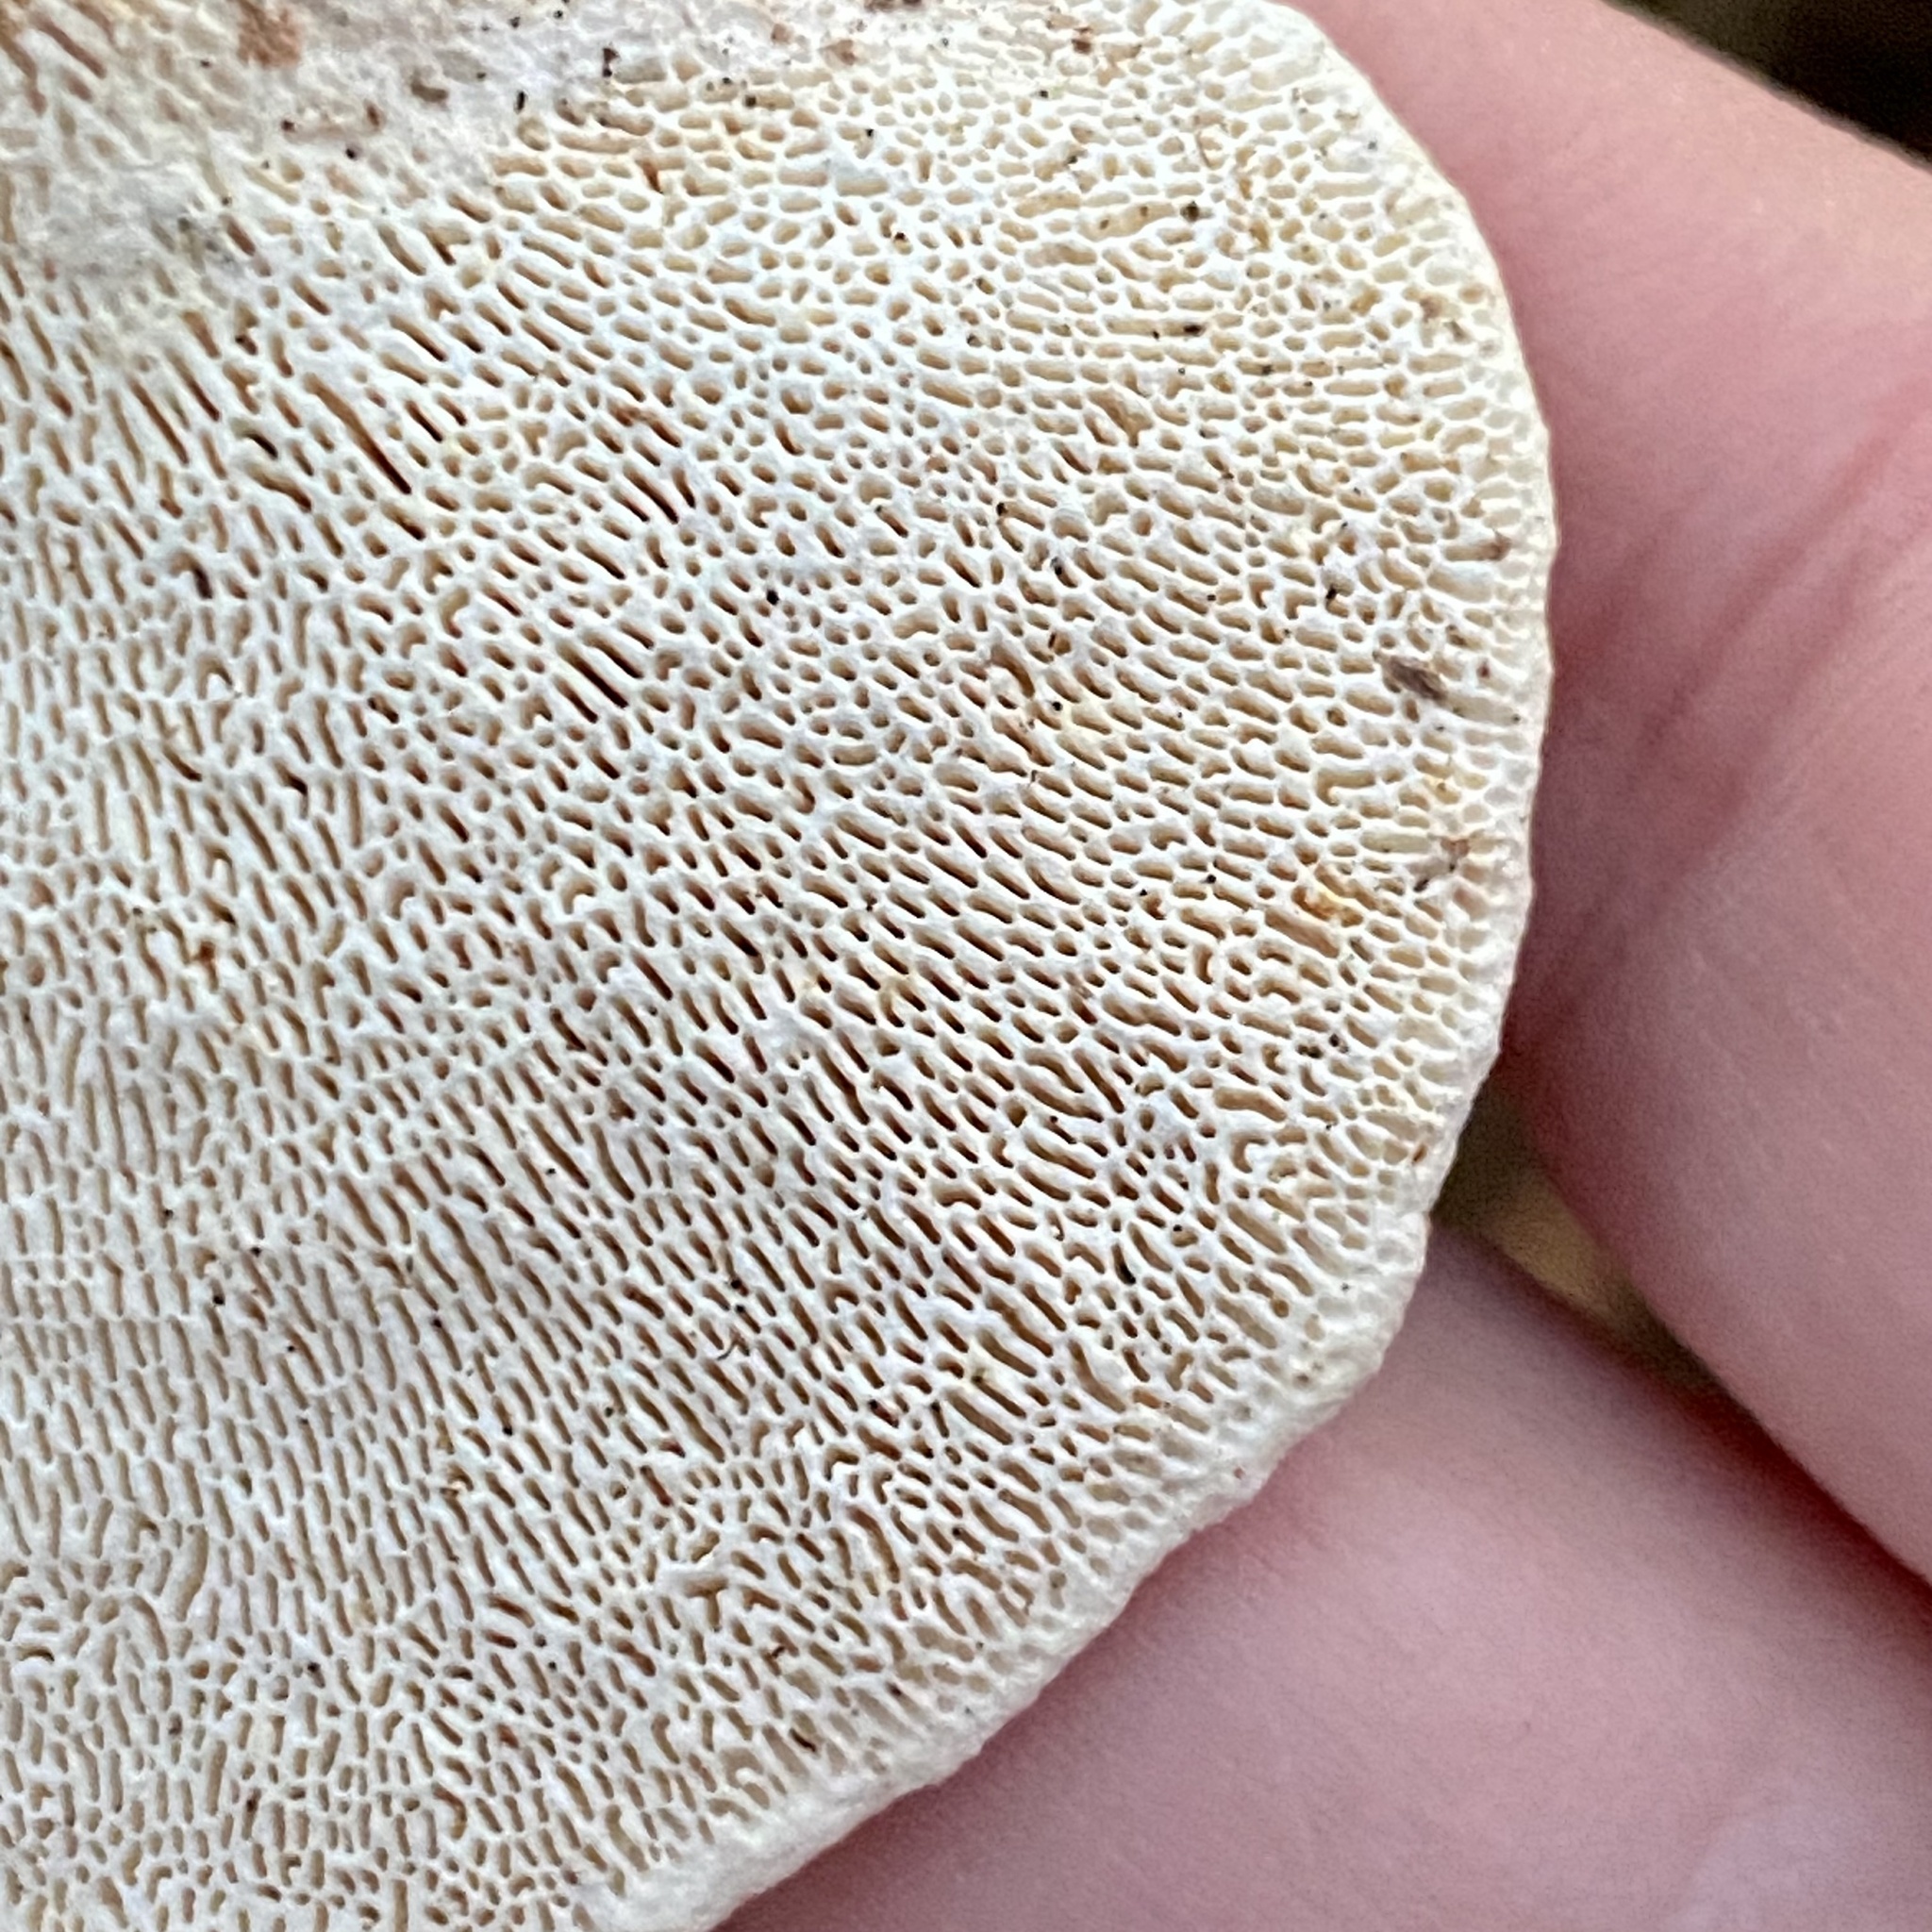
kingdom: Fungi
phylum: Basidiomycota
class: Agaricomycetes
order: Polyporales
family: Polyporaceae
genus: Trametes
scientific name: Trametes gibbosa
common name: Lumpy bracket
